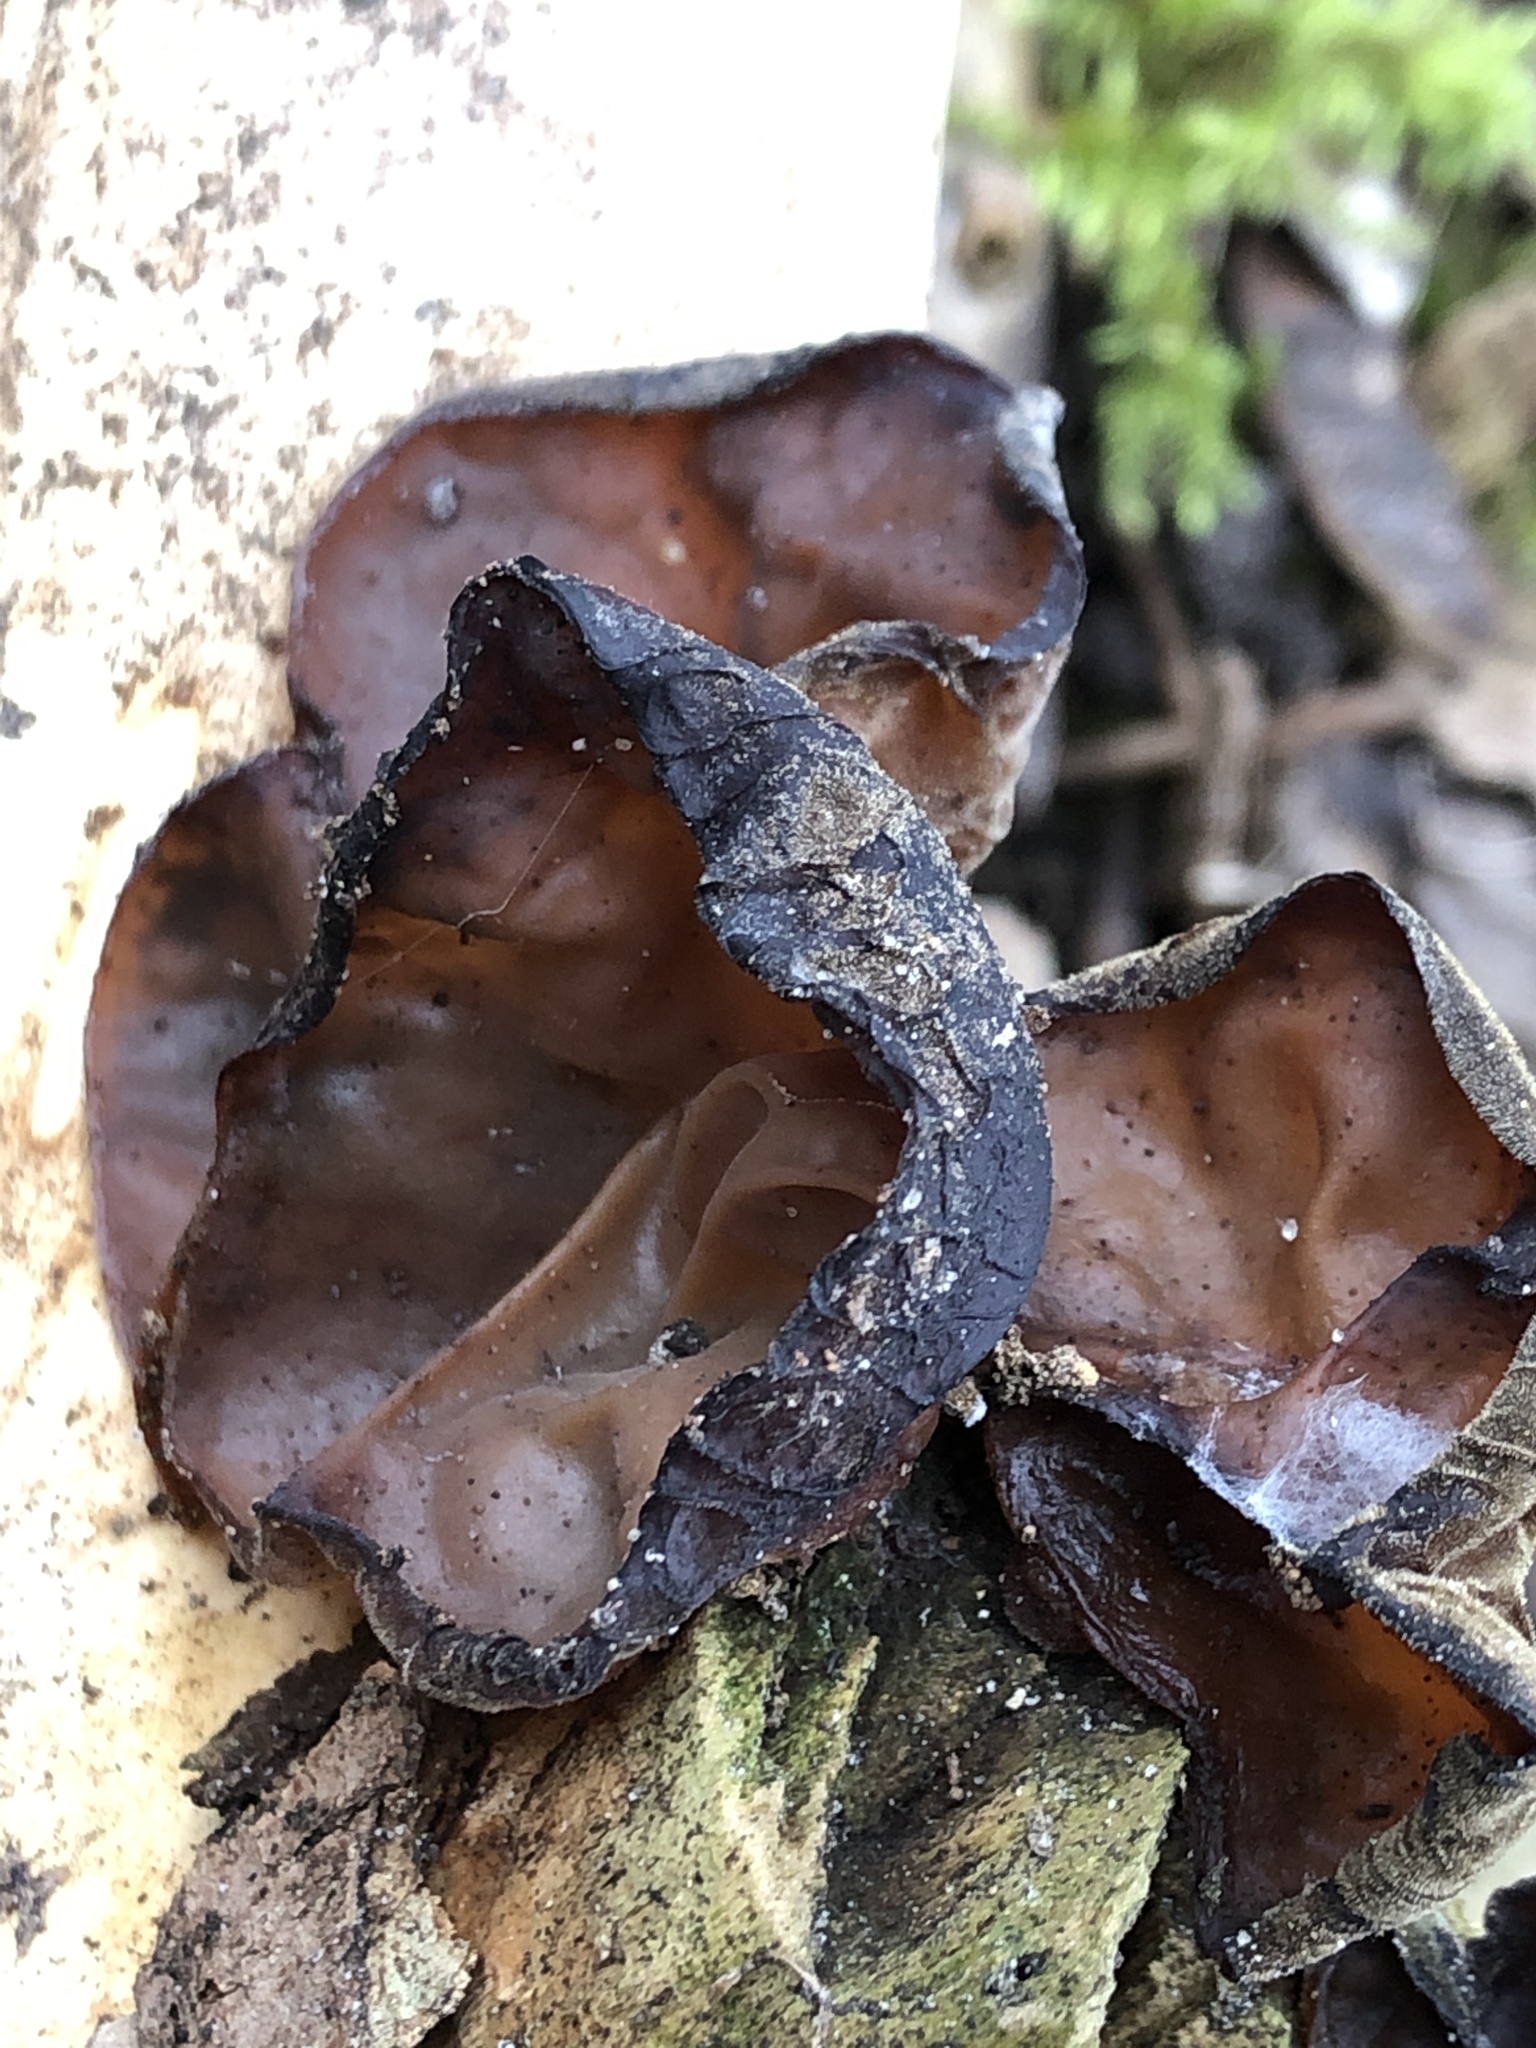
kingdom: Fungi
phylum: Basidiomycota
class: Agaricomycetes
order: Auriculariales
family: Auriculariaceae
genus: Auricularia
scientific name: Auricularia auricula-judae
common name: Jelly ear
